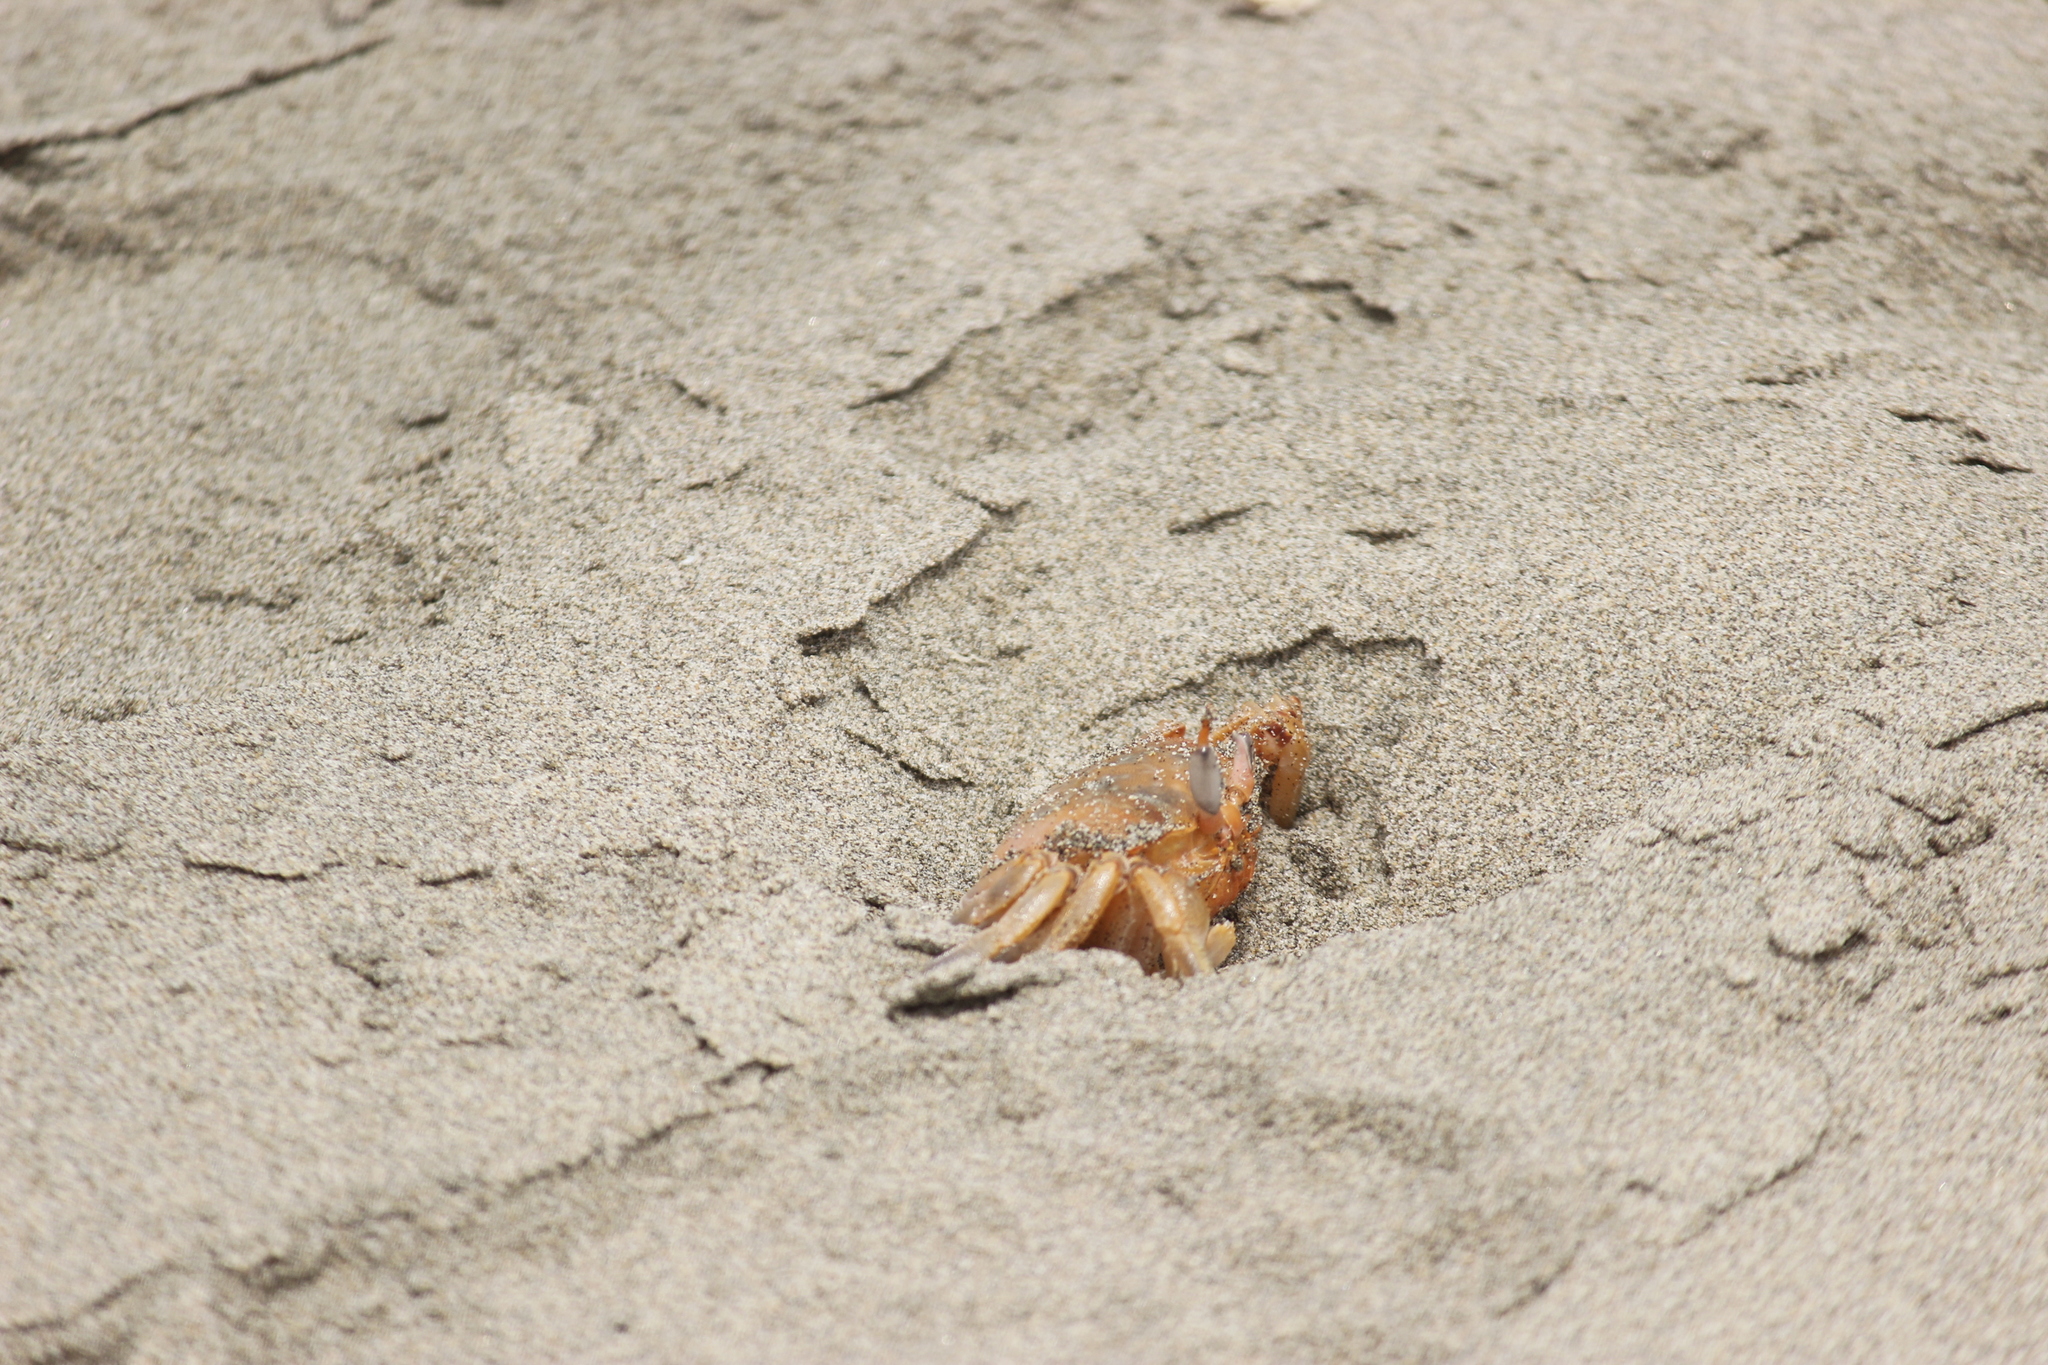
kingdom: Animalia
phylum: Arthropoda
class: Malacostraca
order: Decapoda
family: Ocypodidae
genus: Ocypode
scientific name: Ocypode gaudichaudii
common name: Pacific ghost crab
